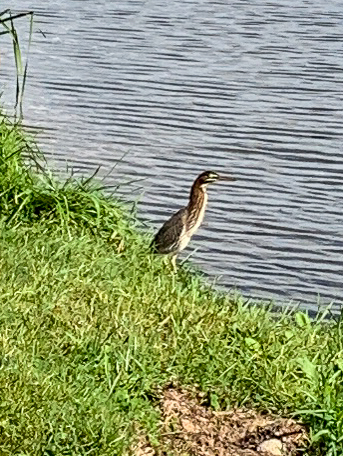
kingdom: Animalia
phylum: Chordata
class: Aves
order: Pelecaniformes
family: Ardeidae
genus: Butorides
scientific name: Butorides virescens
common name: Green heron
